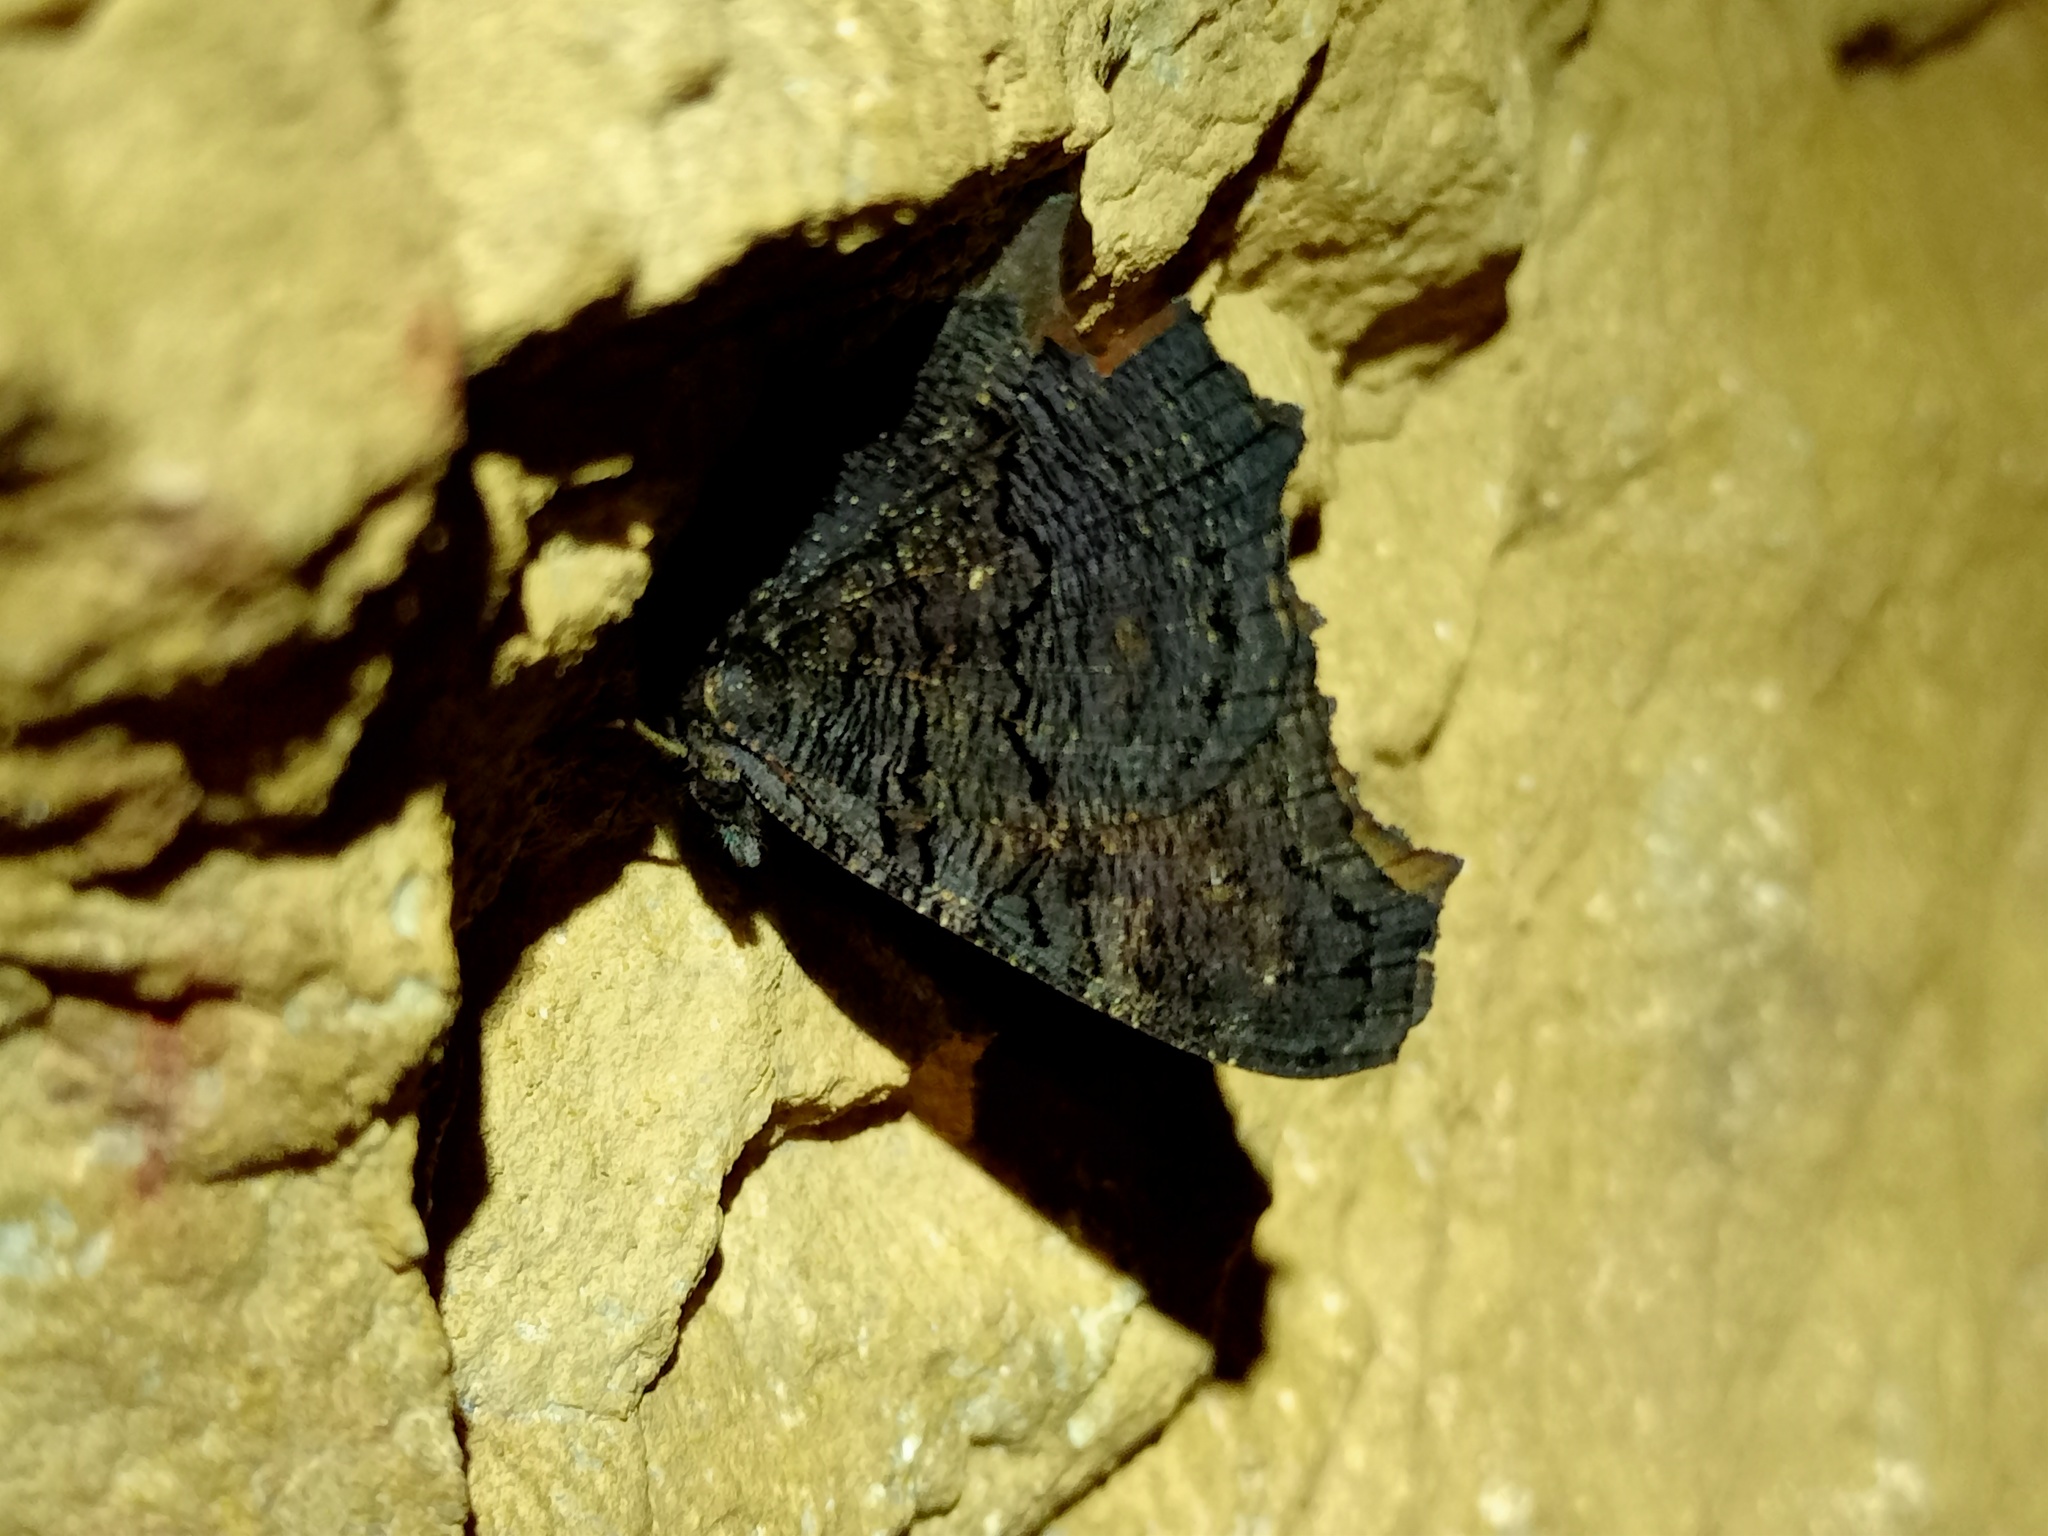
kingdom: Animalia
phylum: Arthropoda
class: Insecta
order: Lepidoptera
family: Nymphalidae
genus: Aglais
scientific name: Aglais io
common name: Peacock
